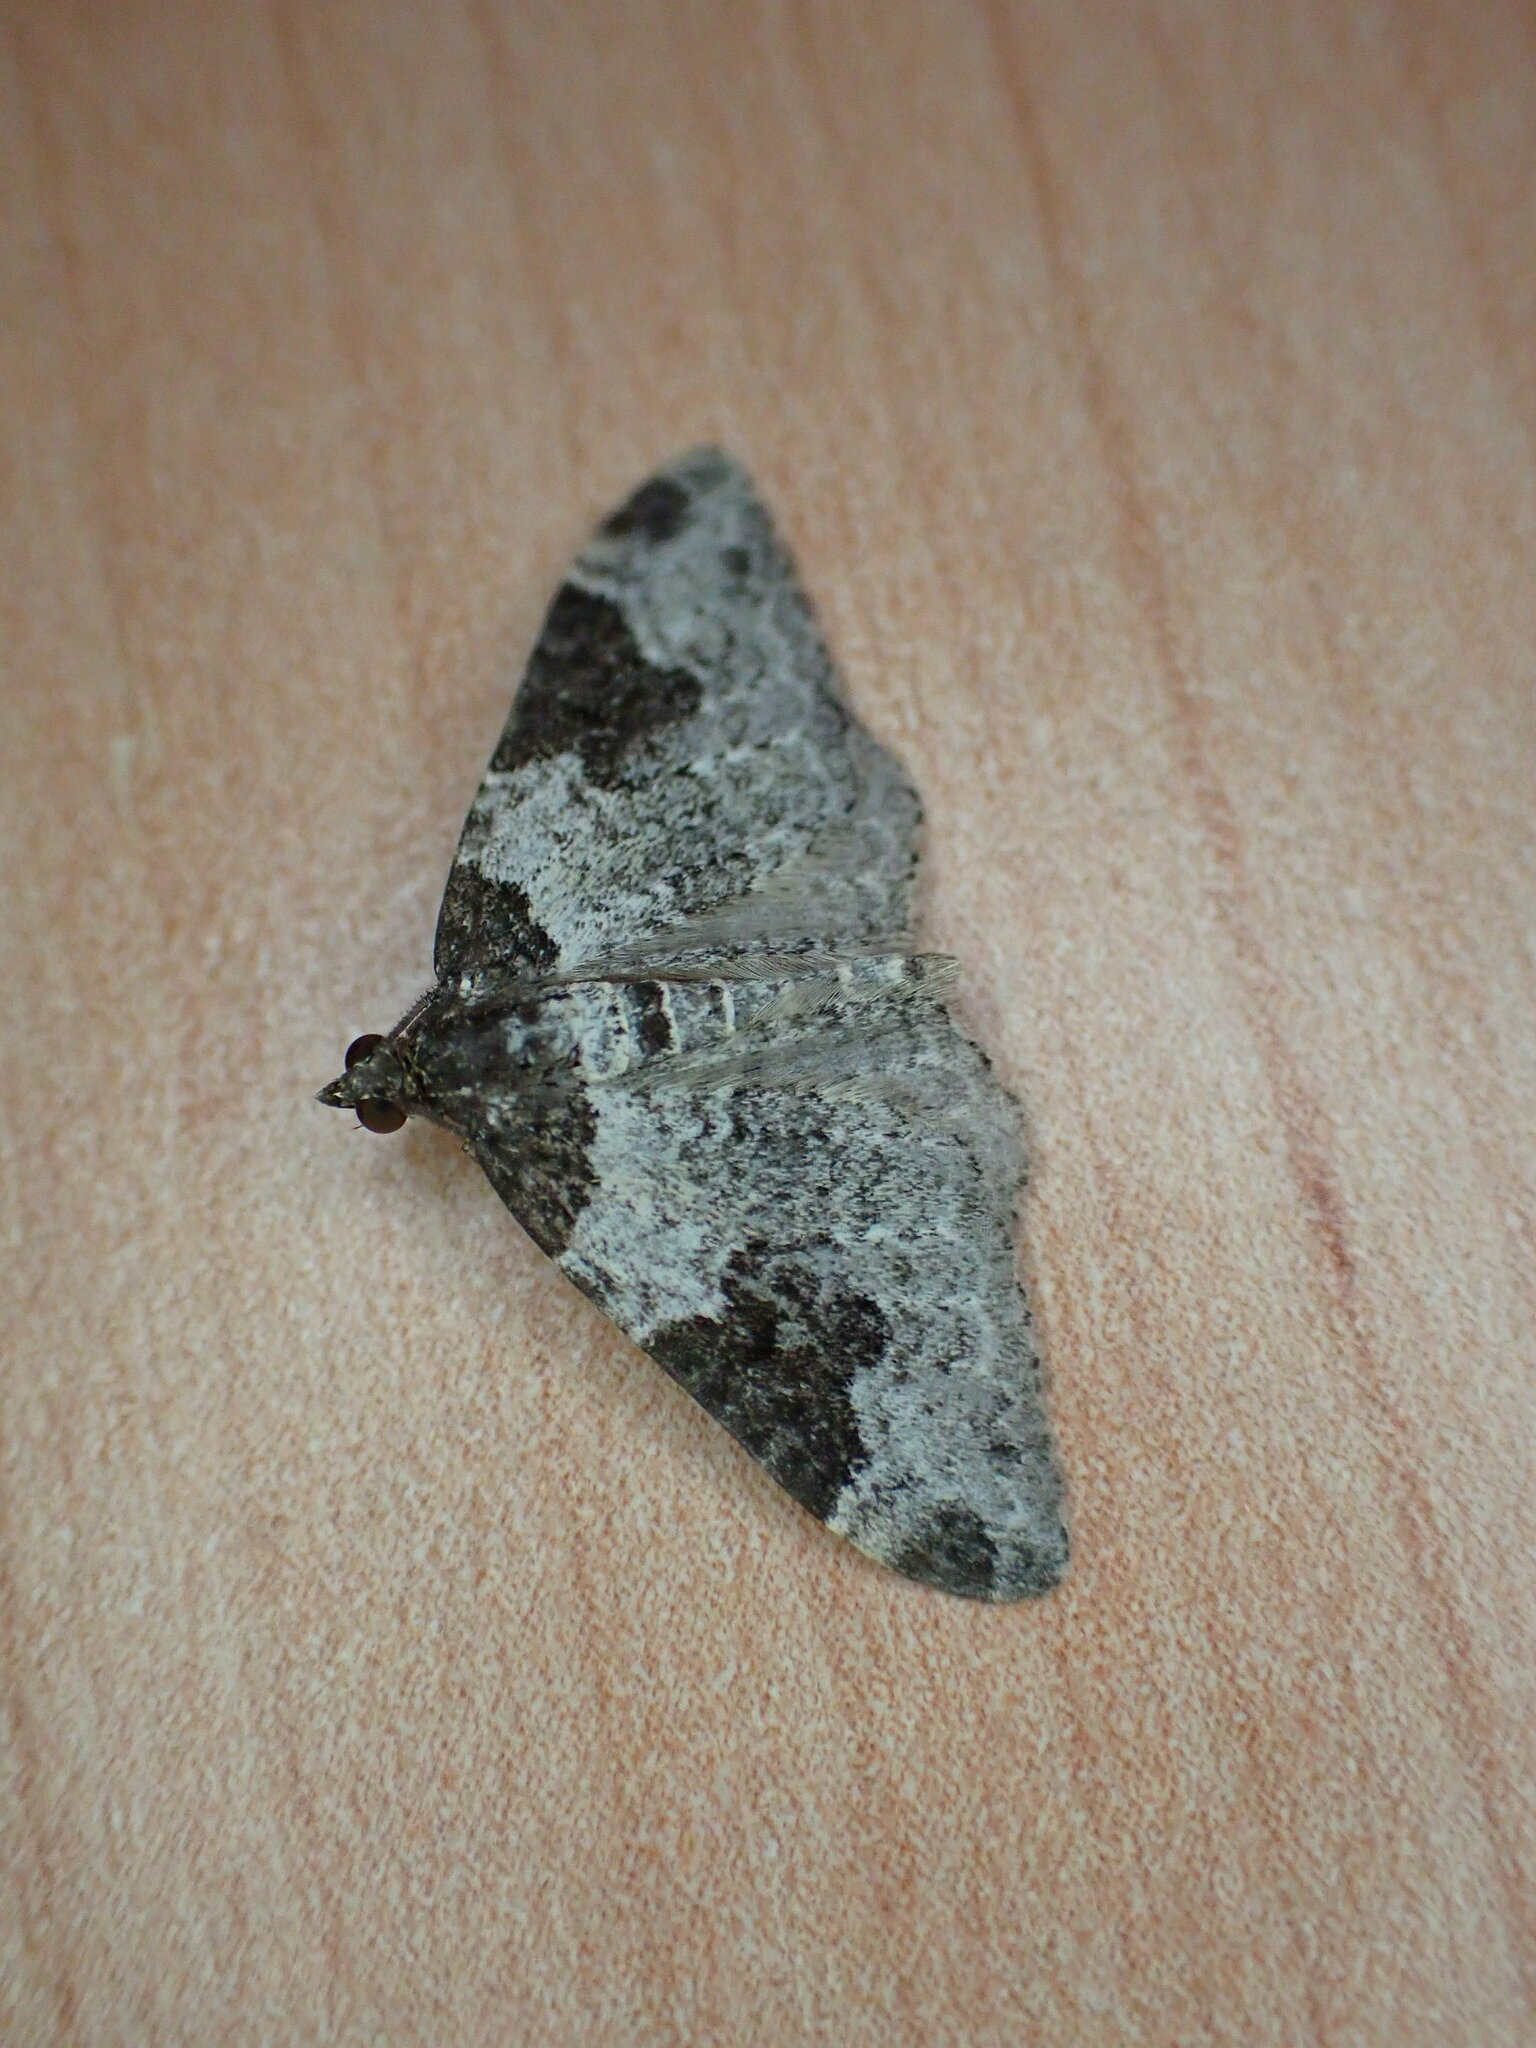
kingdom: Animalia
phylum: Arthropoda
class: Insecta
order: Lepidoptera
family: Geometridae
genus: Xanthorhoe
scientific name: Xanthorhoe fluctuata
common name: Garden carpet
